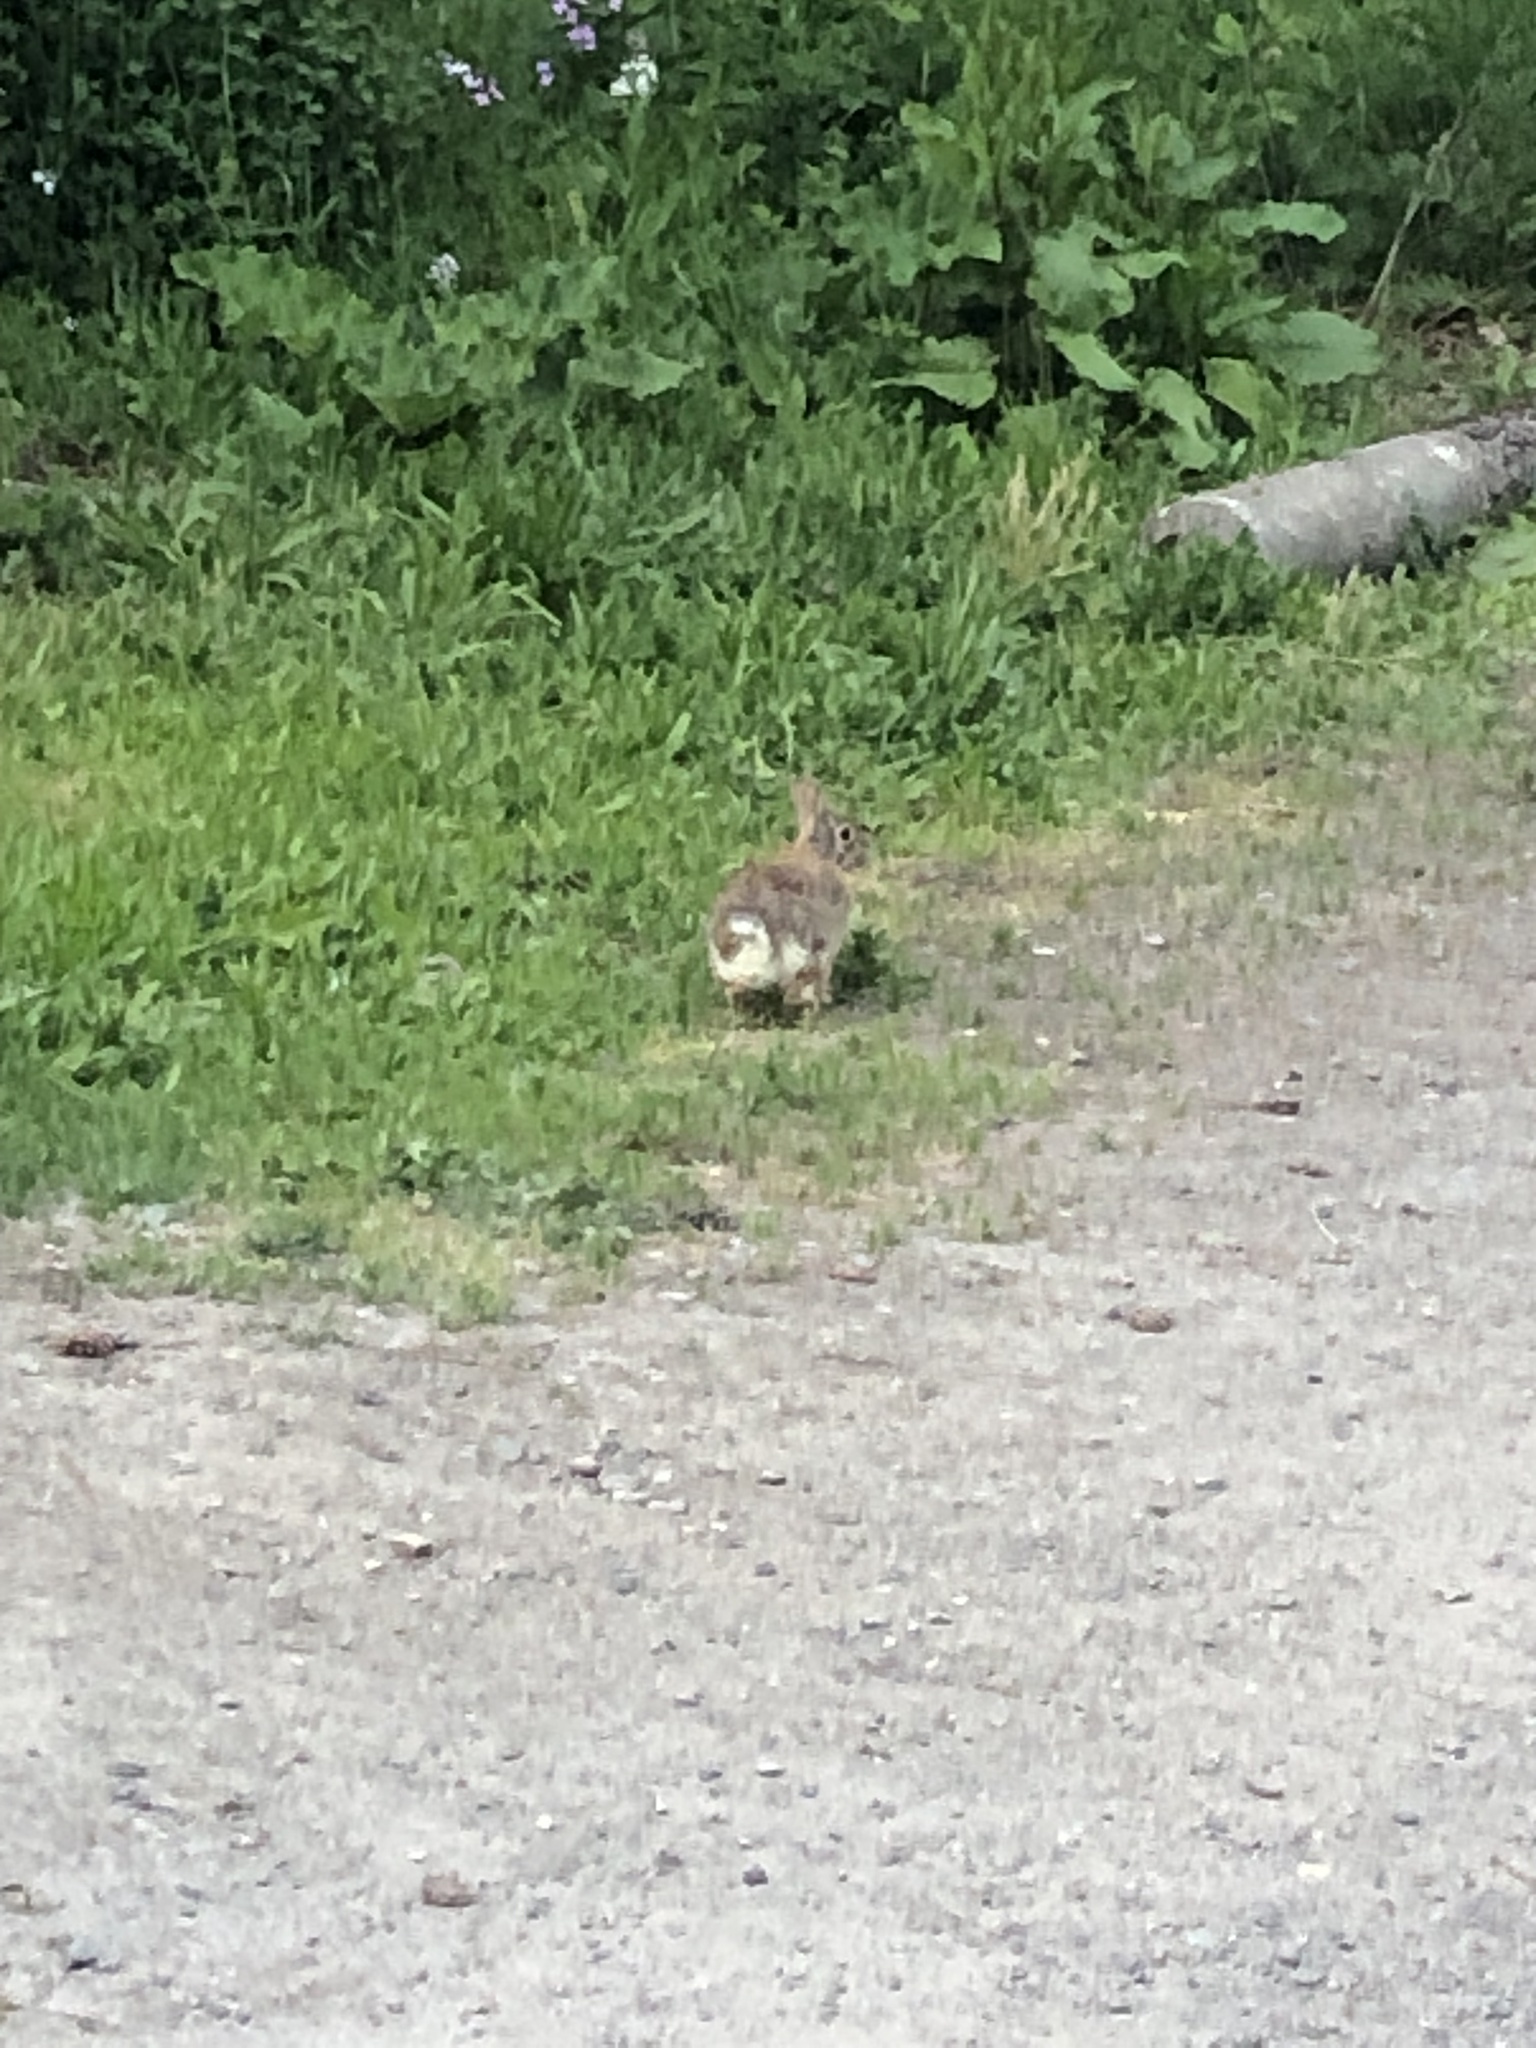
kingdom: Animalia
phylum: Chordata
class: Mammalia
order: Lagomorpha
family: Leporidae
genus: Sylvilagus
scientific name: Sylvilagus floridanus
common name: Eastern cottontail
